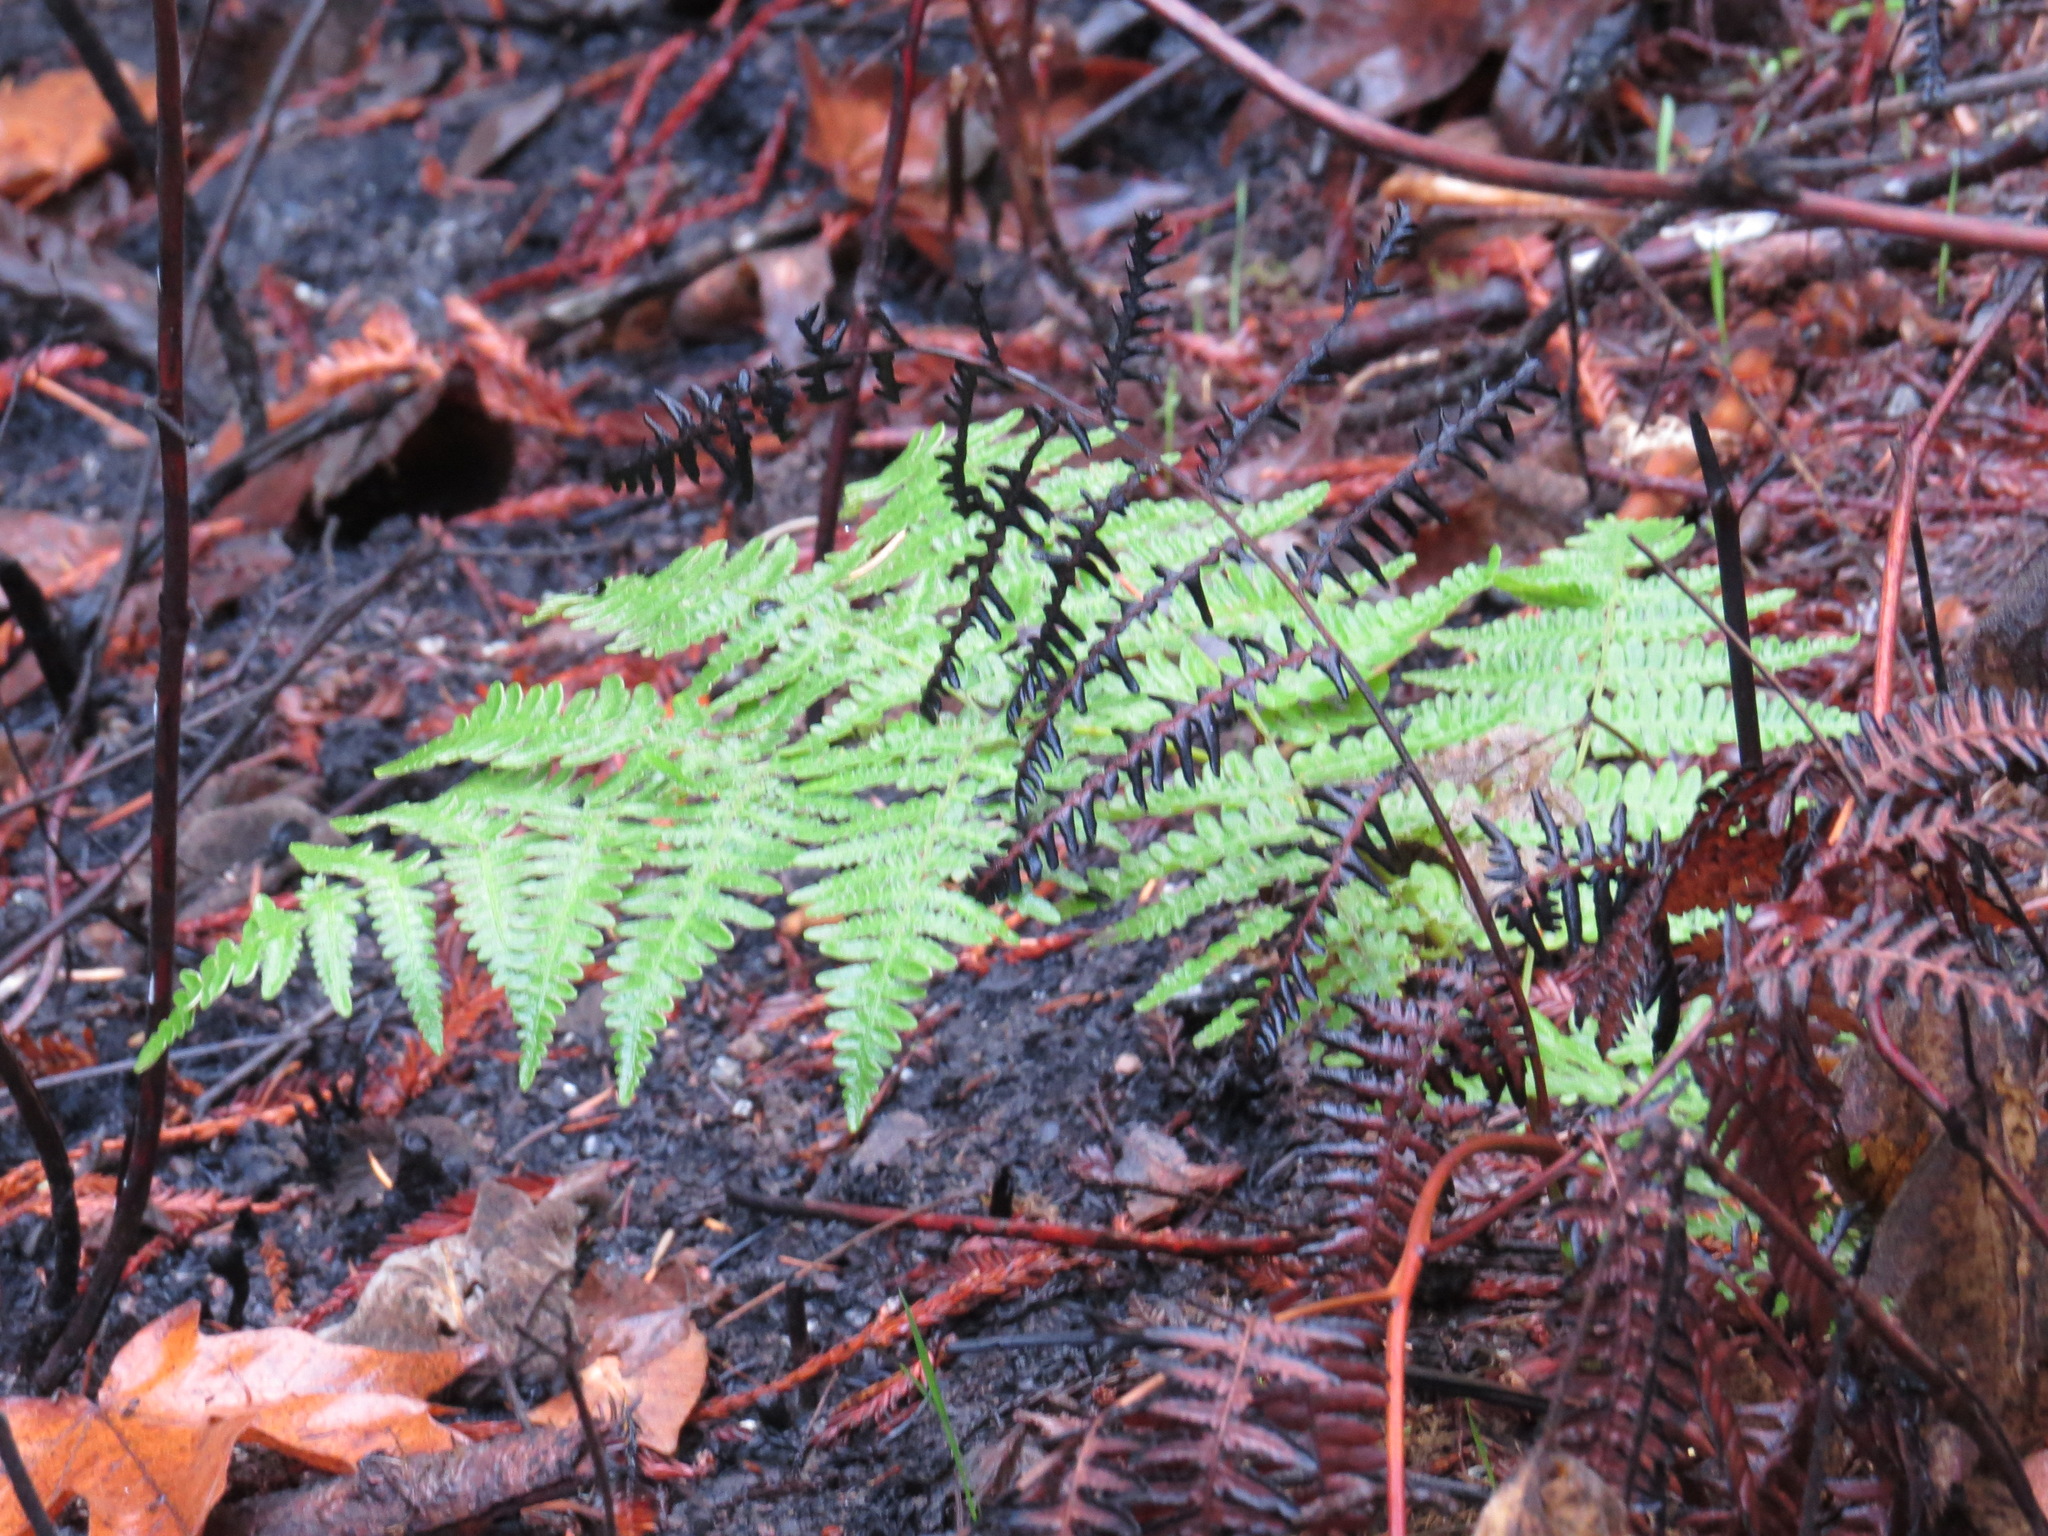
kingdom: Plantae
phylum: Tracheophyta
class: Polypodiopsida
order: Polypodiales
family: Dennstaedtiaceae
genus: Pteridium
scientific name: Pteridium aquilinum
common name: Bracken
